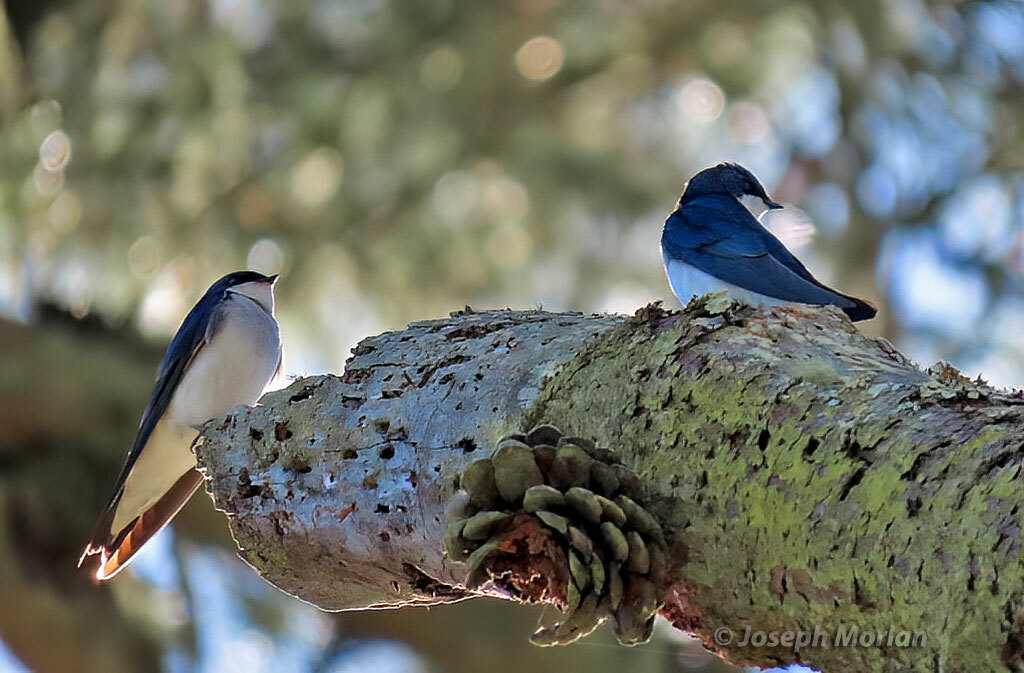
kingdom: Animalia
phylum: Chordata
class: Aves
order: Passeriformes
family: Hirundinidae
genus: Tachycineta
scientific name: Tachycineta bicolor
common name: Tree swallow
